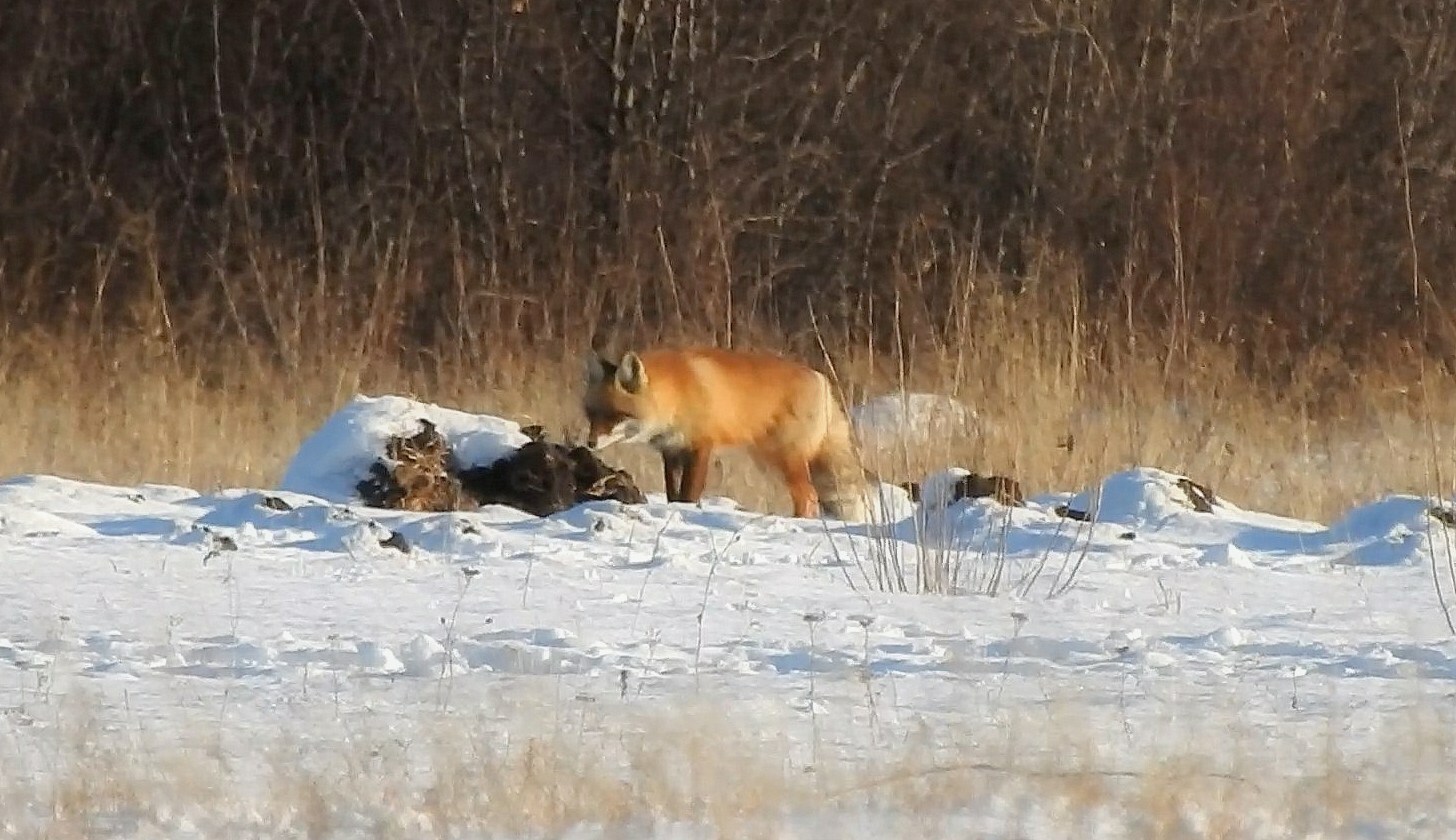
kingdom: Animalia
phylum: Chordata
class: Mammalia
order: Carnivora
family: Canidae
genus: Vulpes
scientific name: Vulpes vulpes
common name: Red fox
